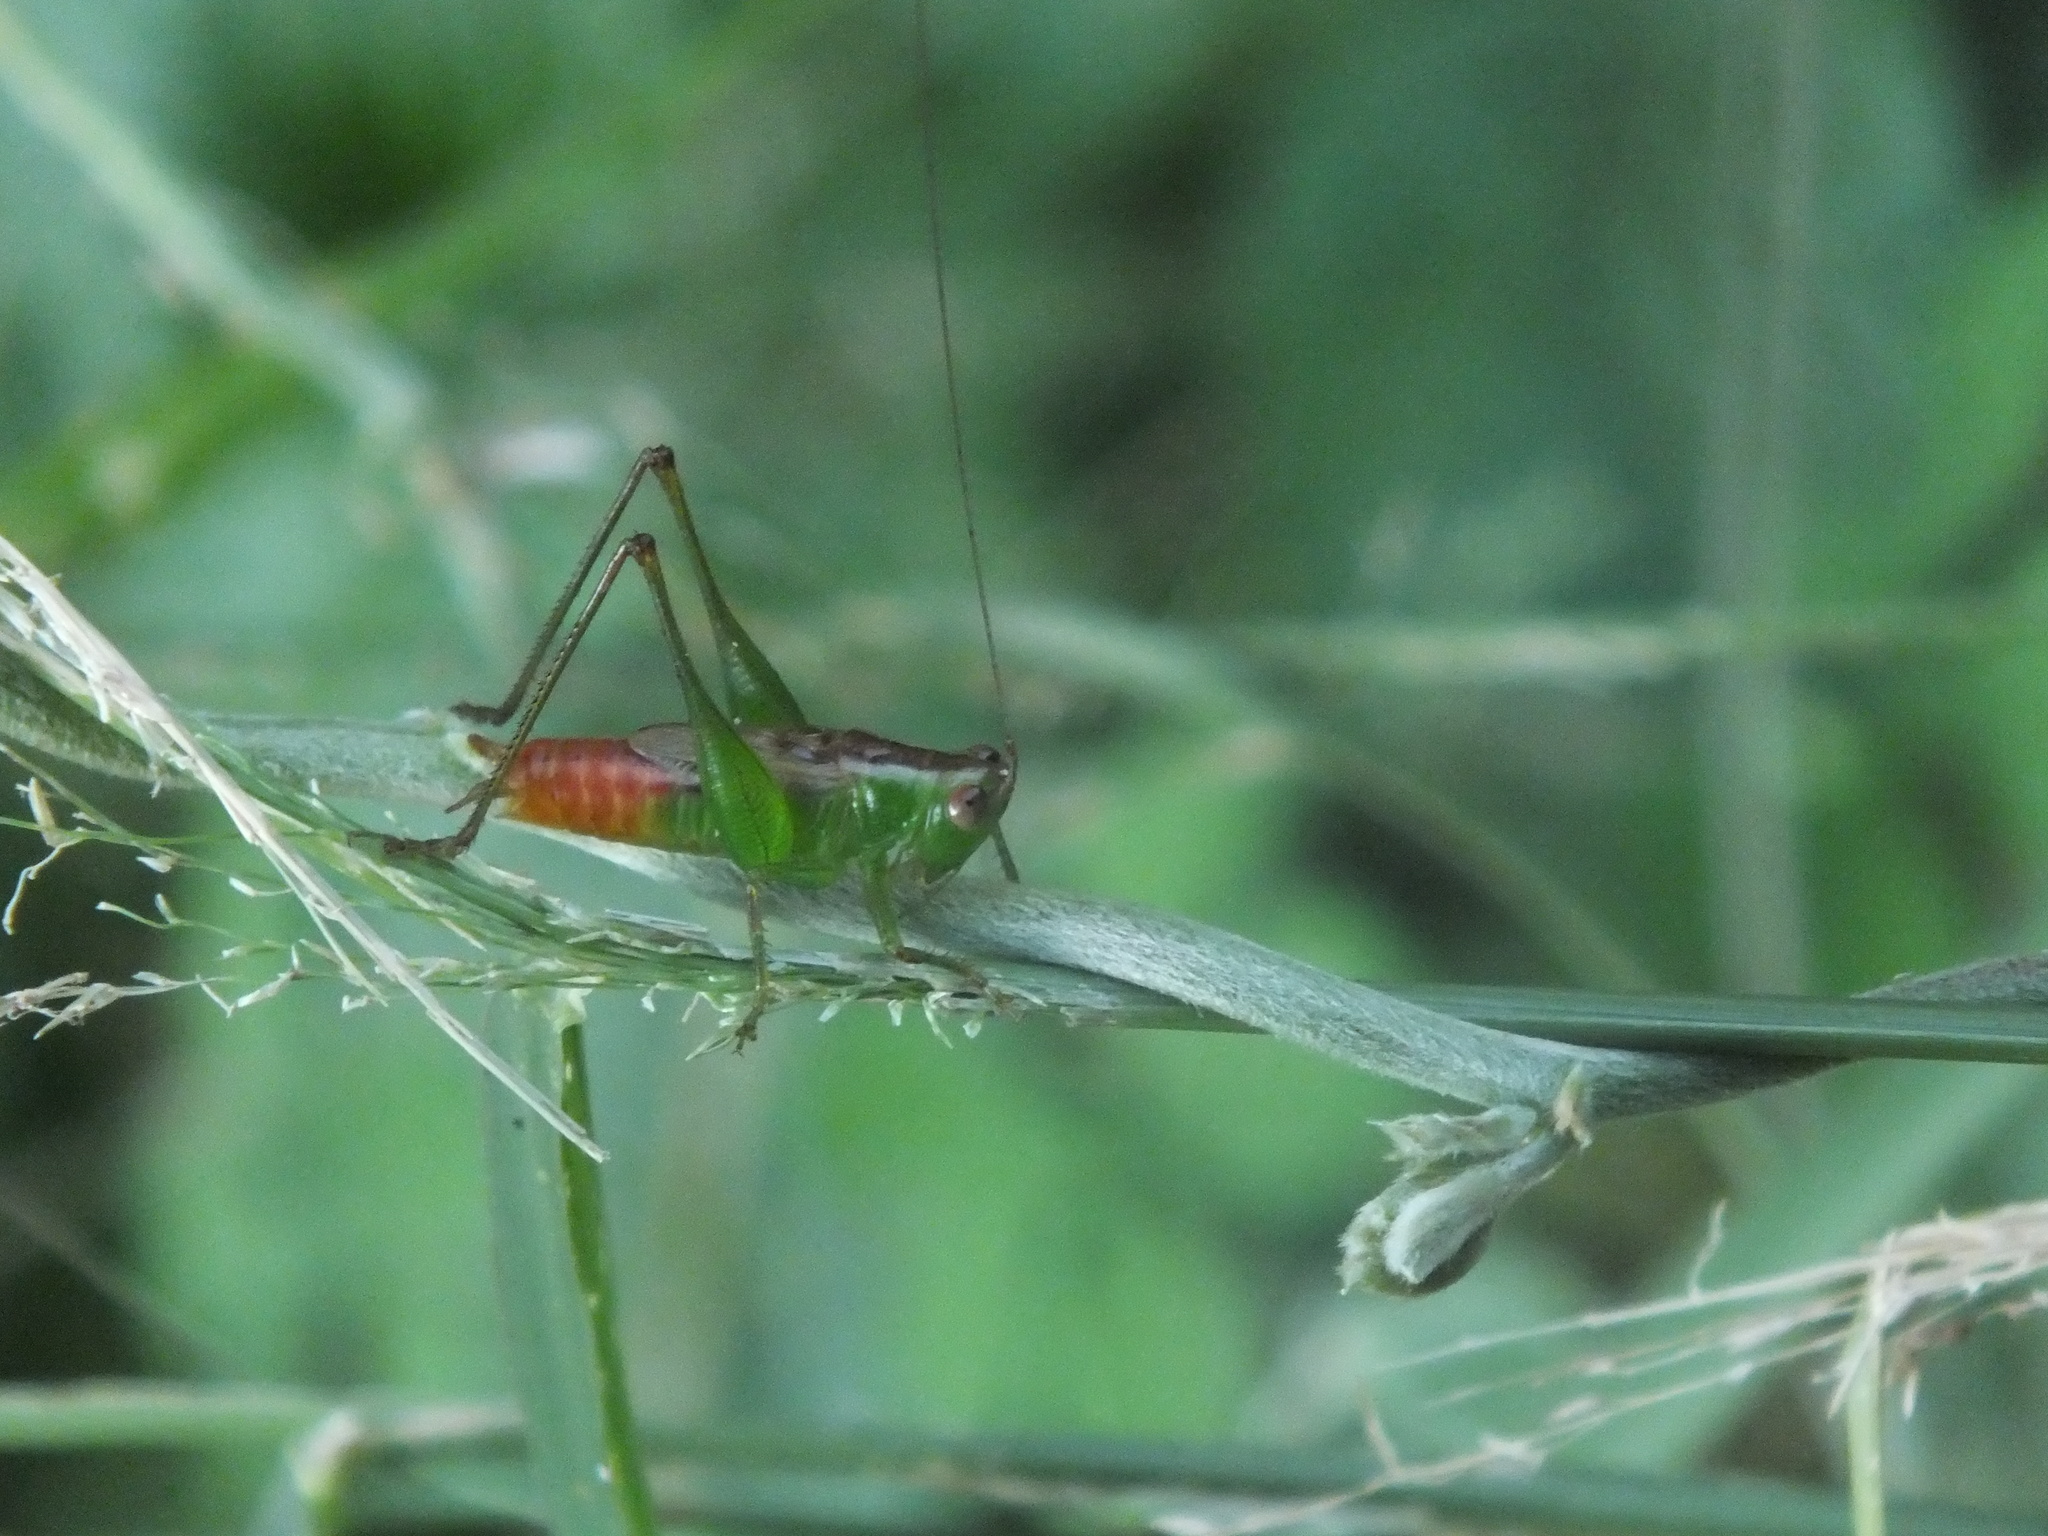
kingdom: Animalia
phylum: Arthropoda
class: Insecta
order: Orthoptera
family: Tettigoniidae
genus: Conocephalus
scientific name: Conocephalus saltator
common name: Katydid
